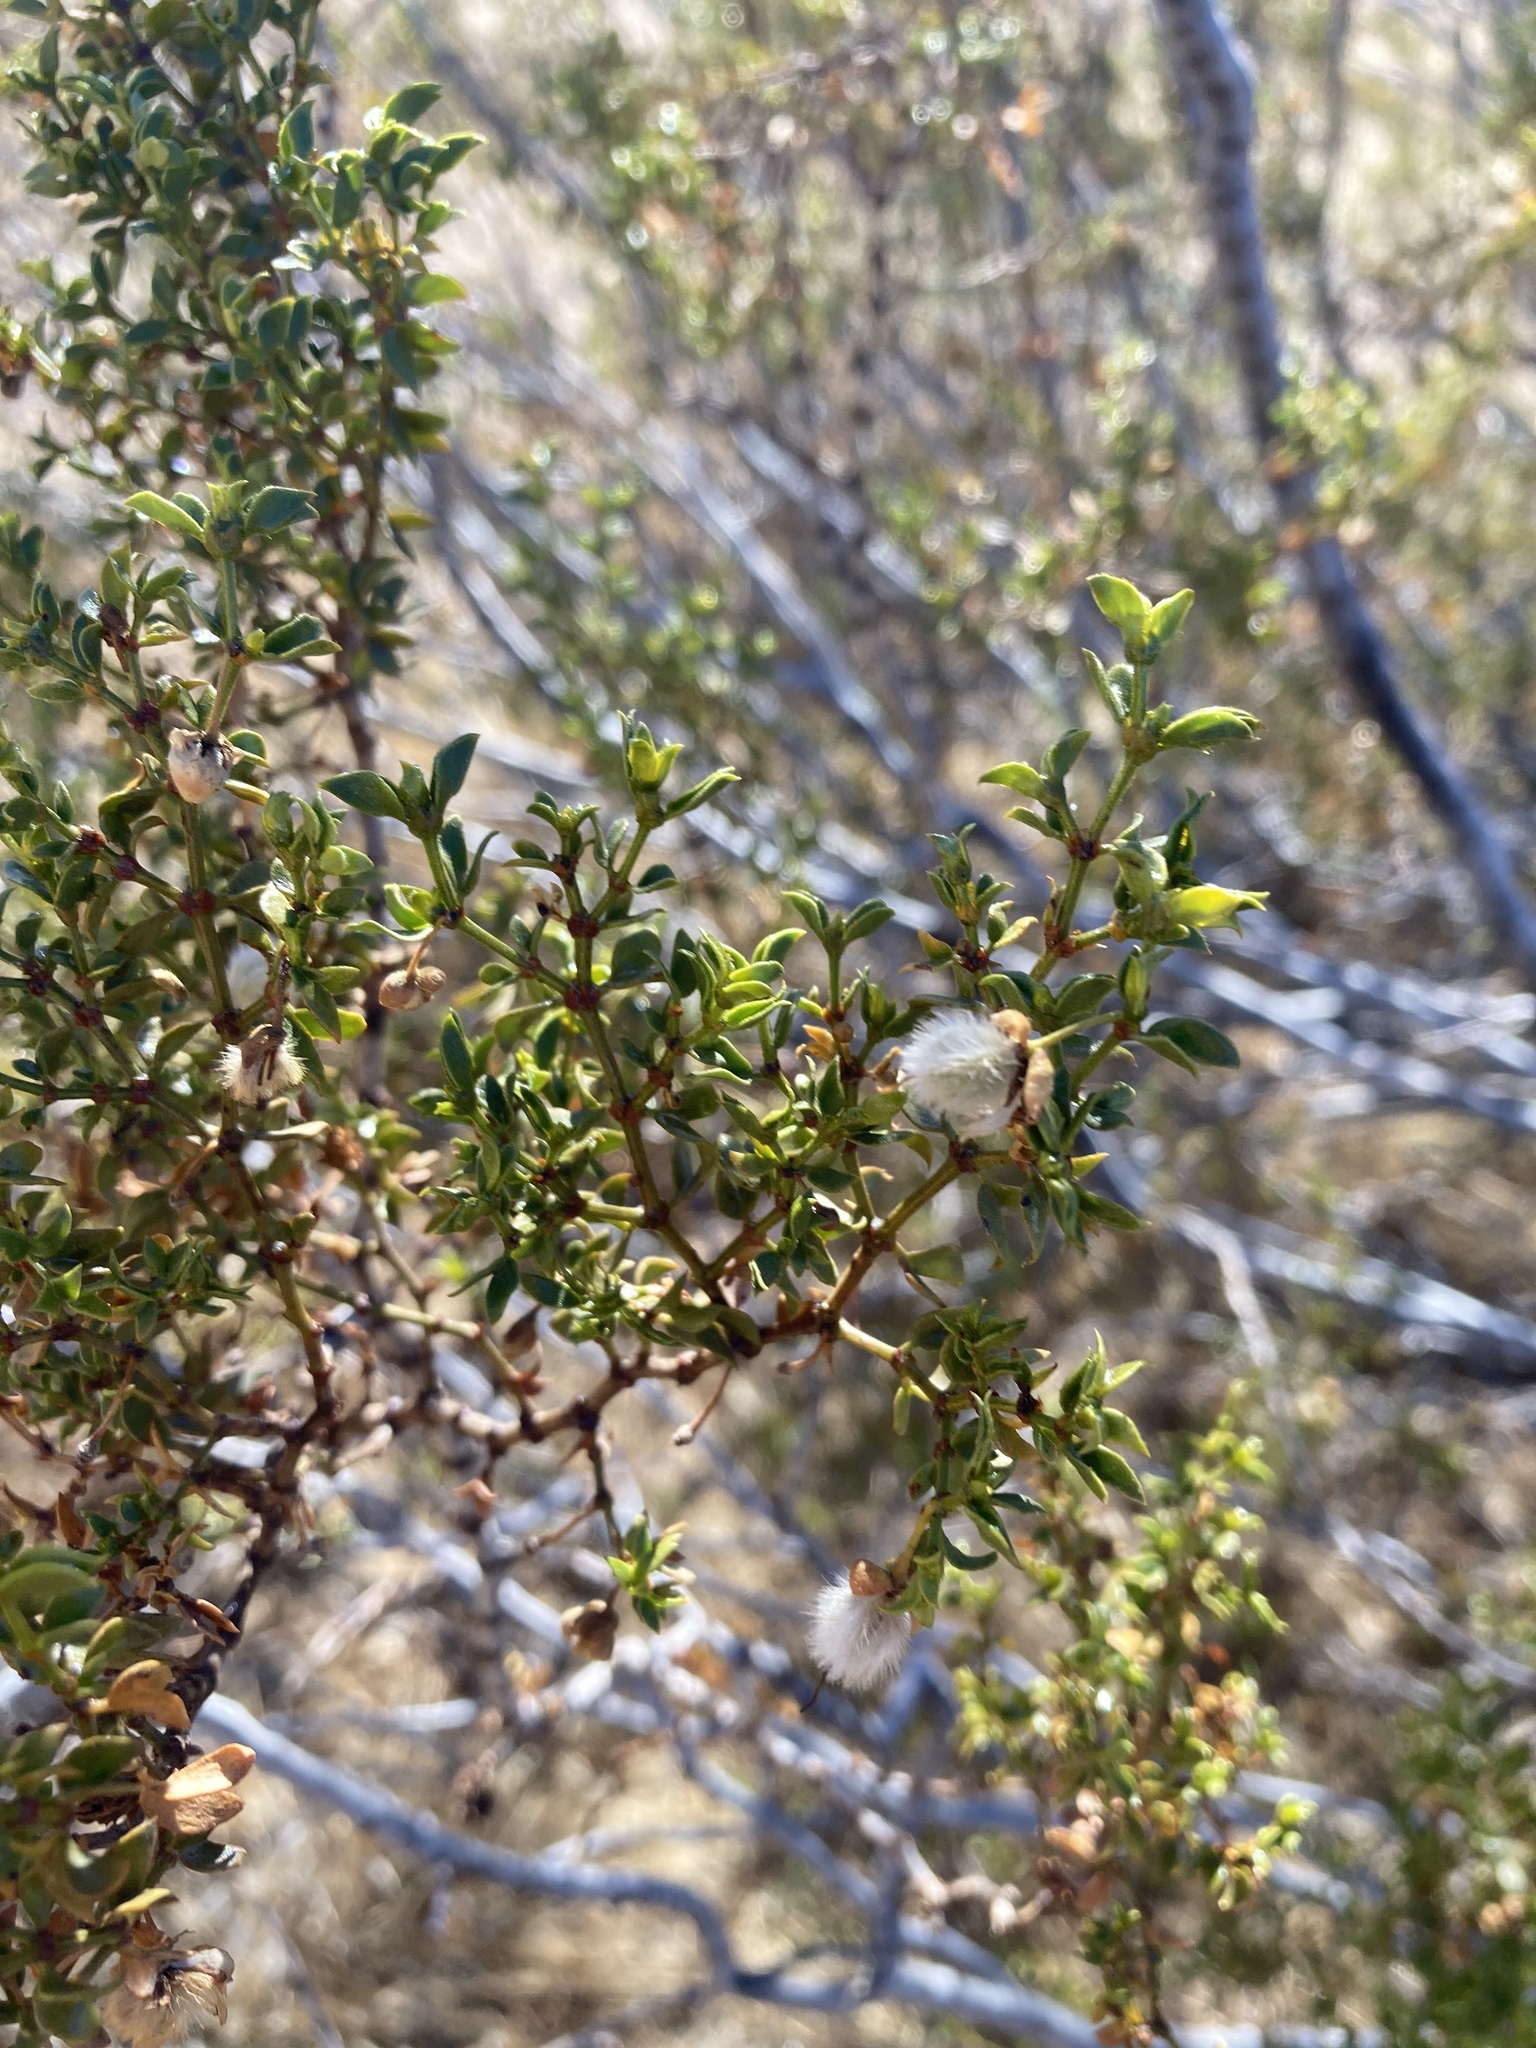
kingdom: Plantae
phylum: Tracheophyta
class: Magnoliopsida
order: Zygophyllales
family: Zygophyllaceae
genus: Larrea
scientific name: Larrea tridentata
